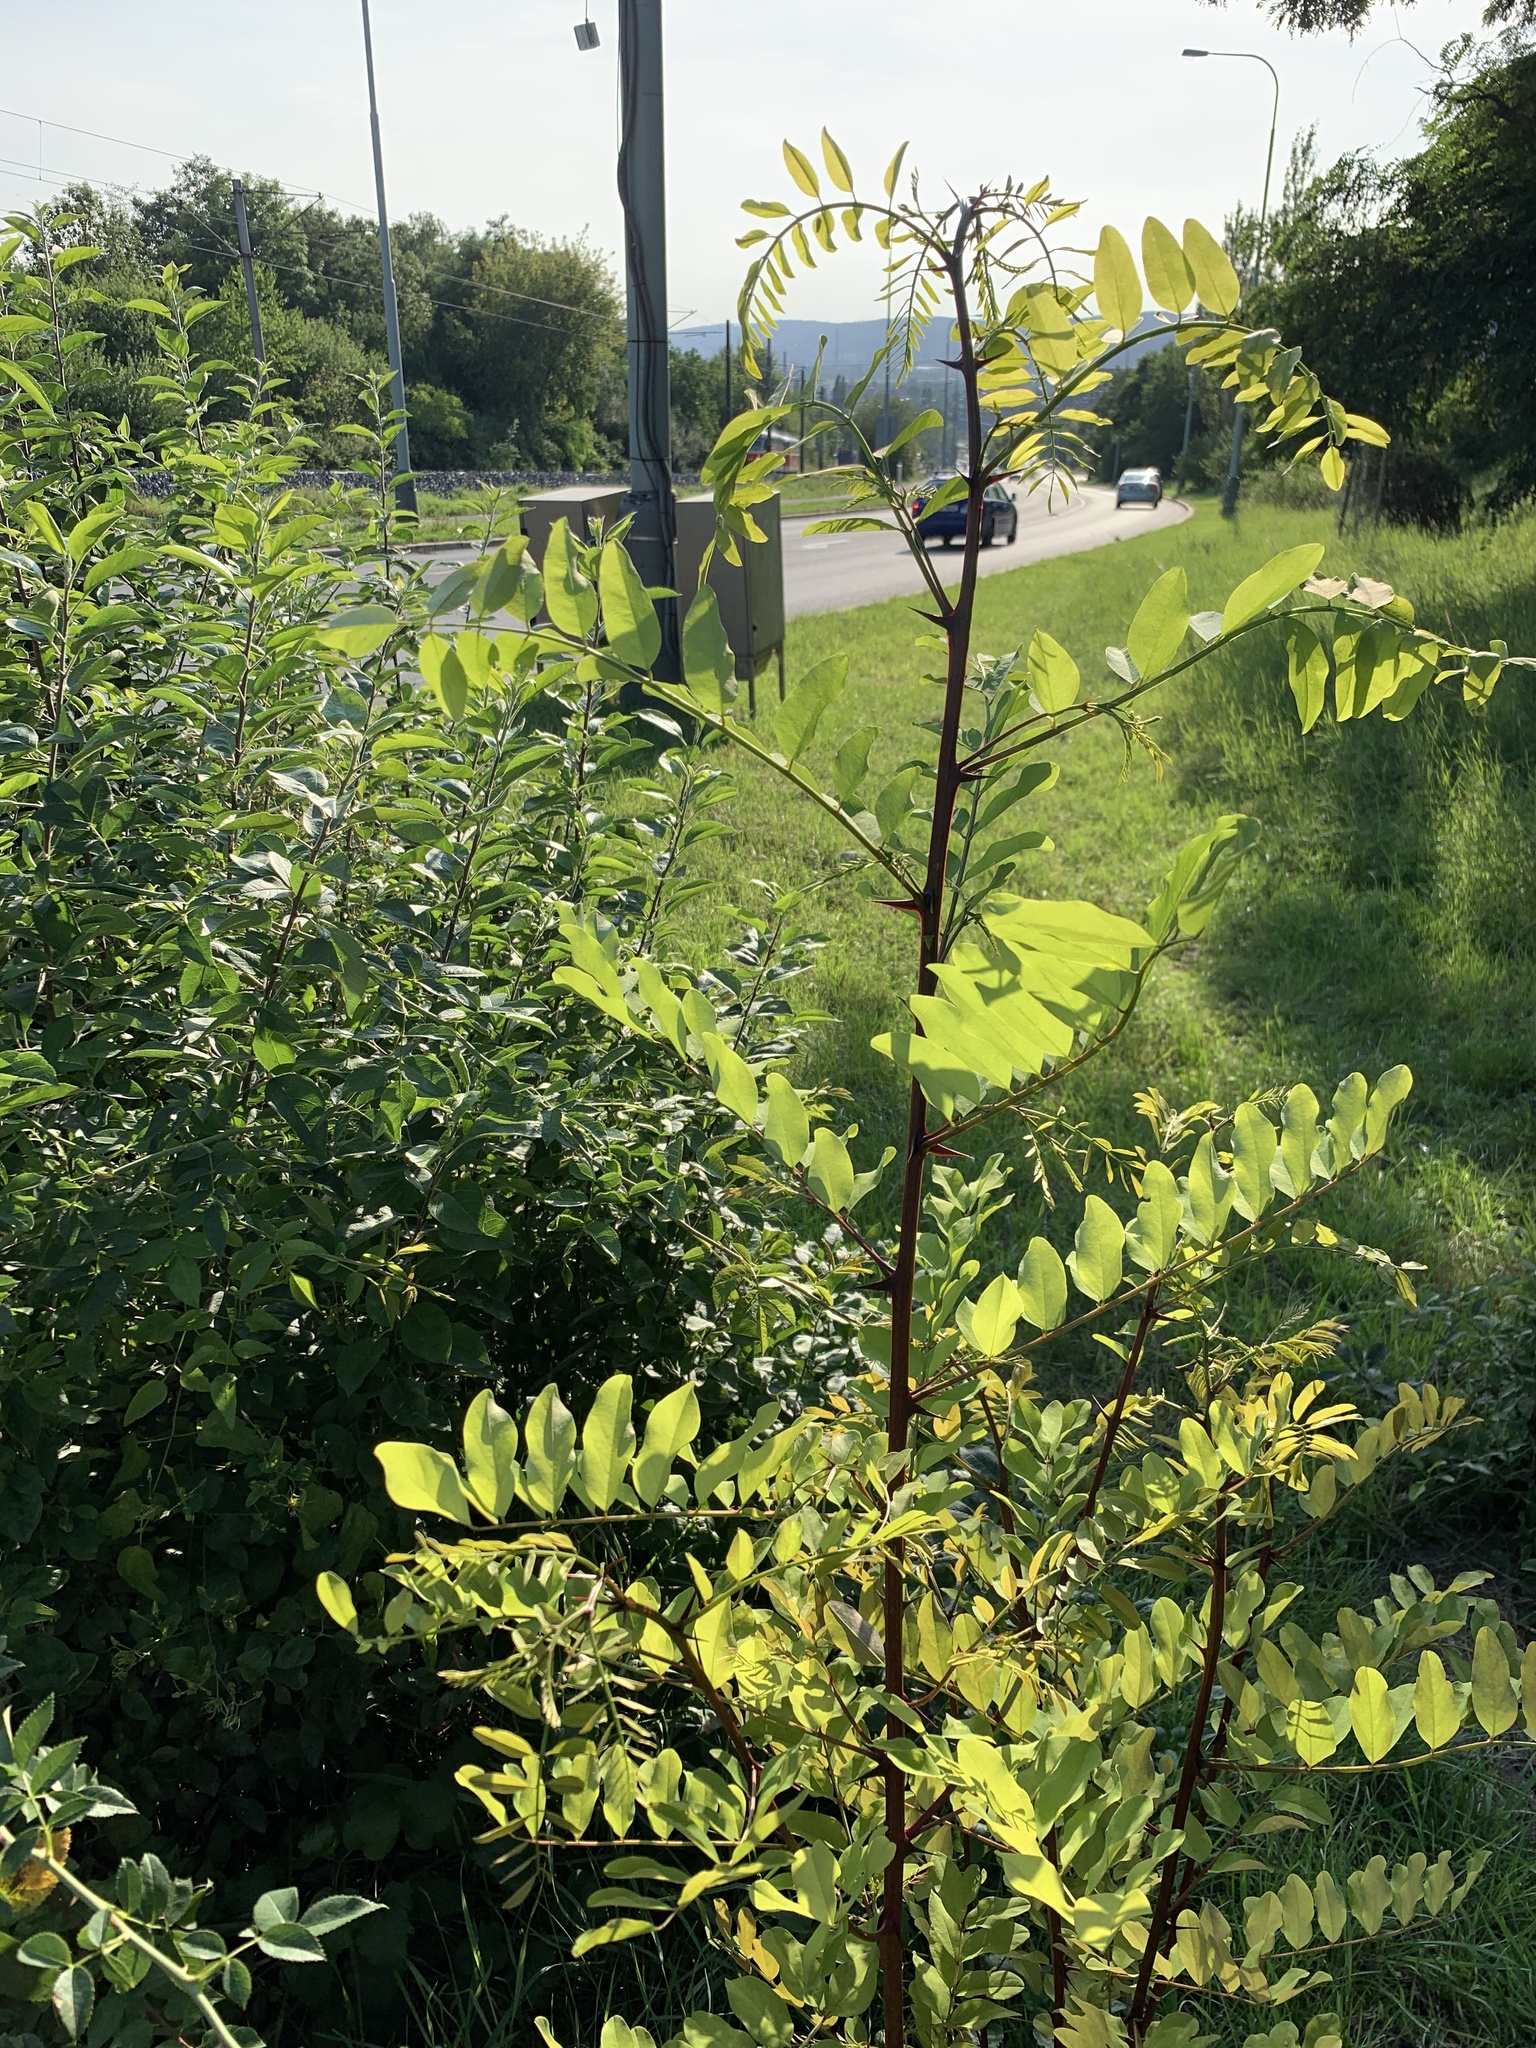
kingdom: Plantae
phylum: Tracheophyta
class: Magnoliopsida
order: Fabales
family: Fabaceae
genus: Robinia
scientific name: Robinia pseudoacacia
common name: Black locust
